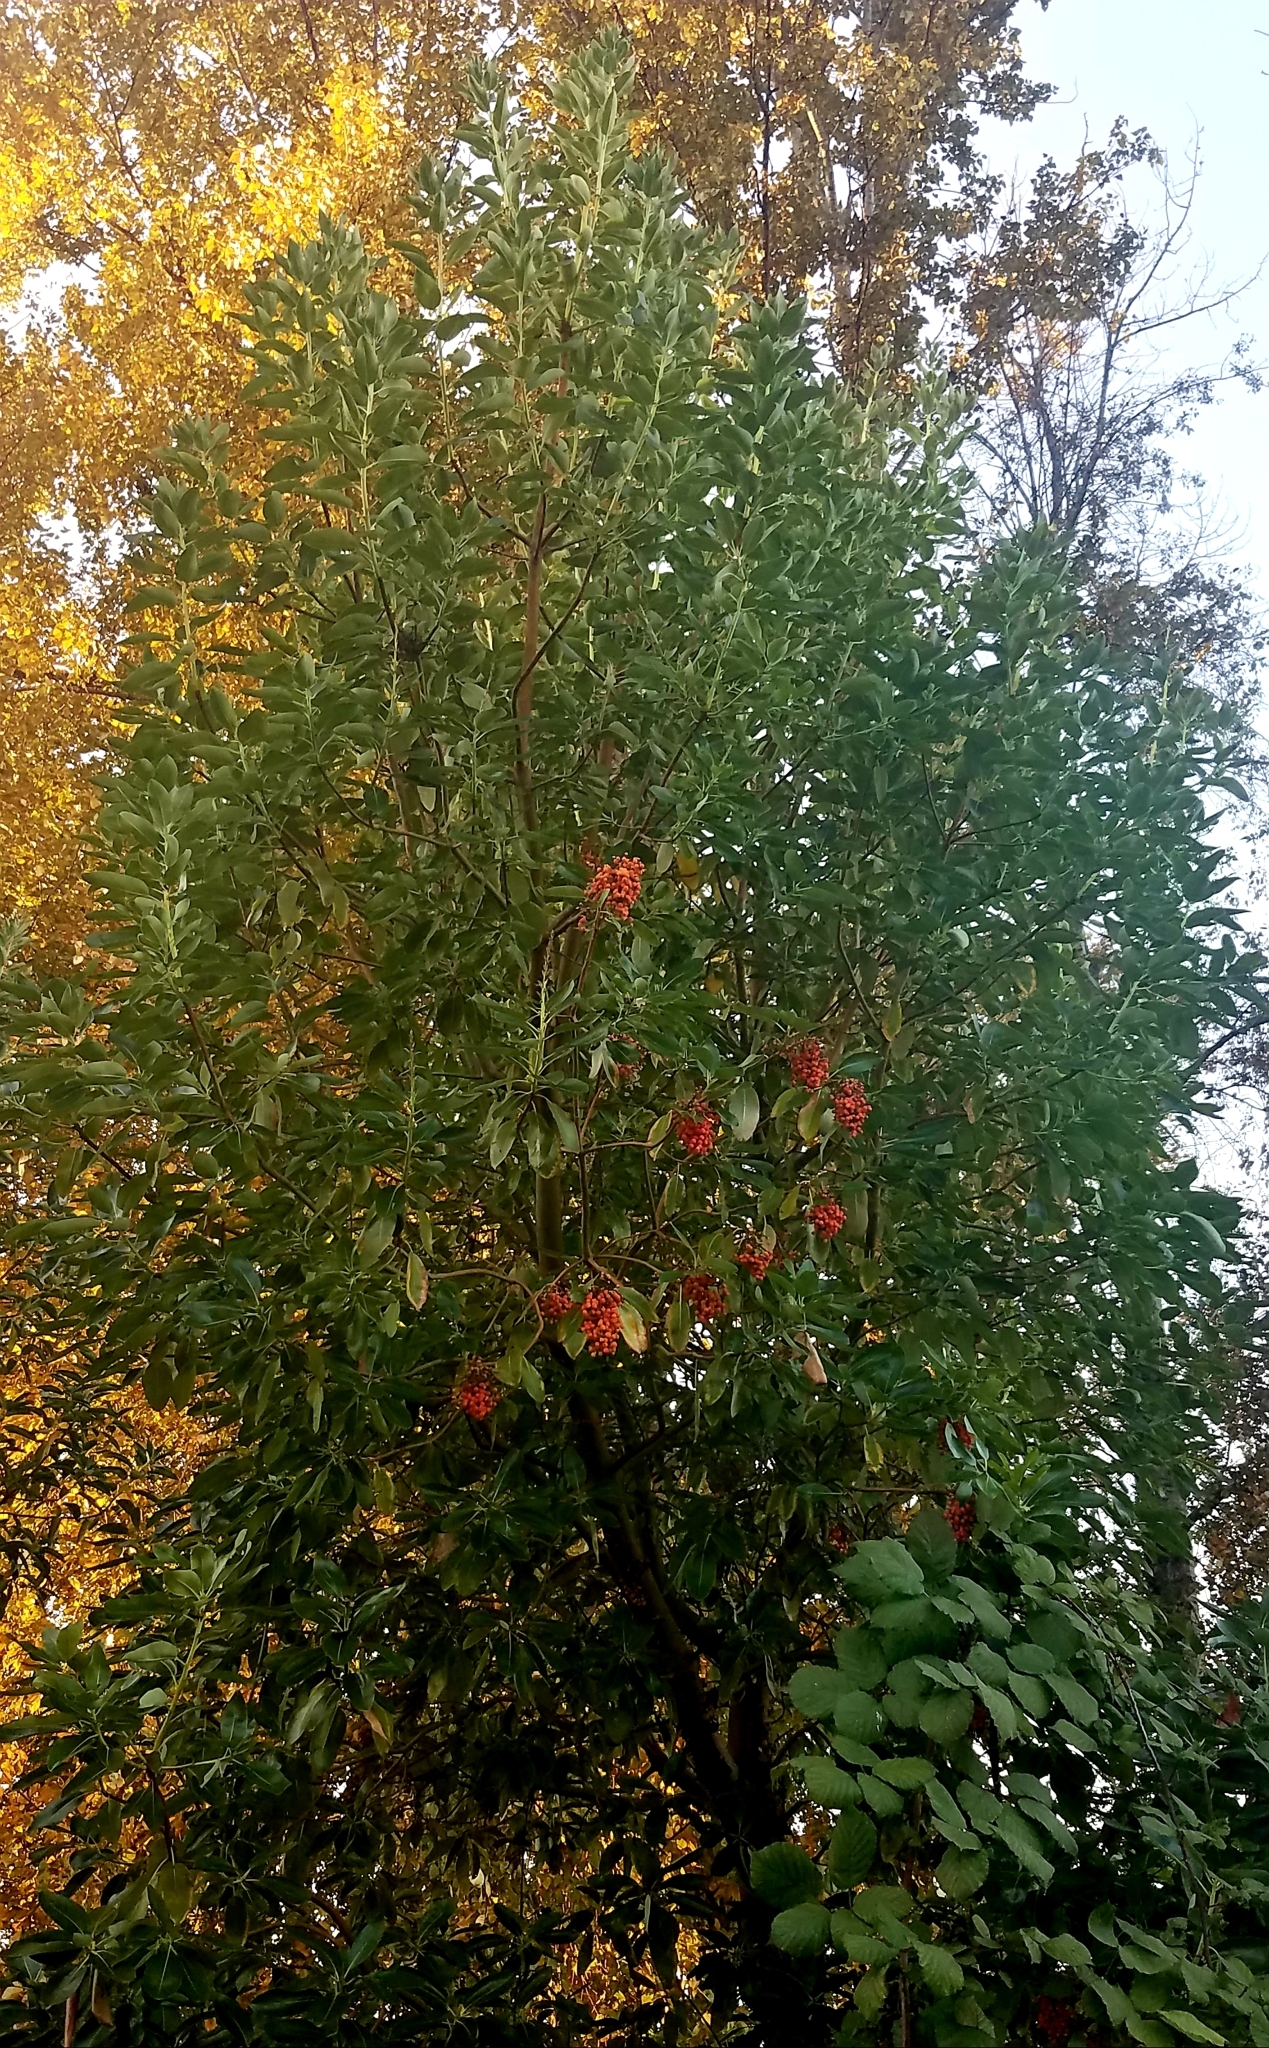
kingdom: Plantae
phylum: Tracheophyta
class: Magnoliopsida
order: Ericales
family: Ericaceae
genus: Arbutus
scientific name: Arbutus menziesii
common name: Pacific madrone
